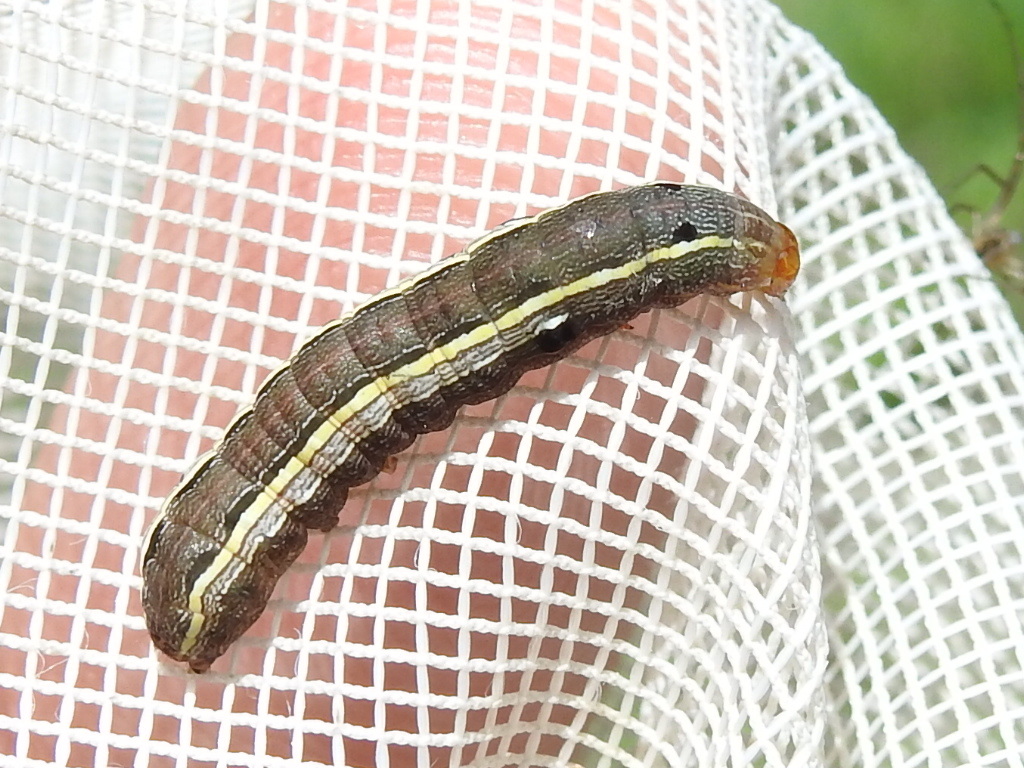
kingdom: Animalia
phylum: Arthropoda
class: Insecta
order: Lepidoptera
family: Noctuidae
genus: Spodoptera
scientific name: Spodoptera ornithogalli
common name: Yellow-striped armyworm
